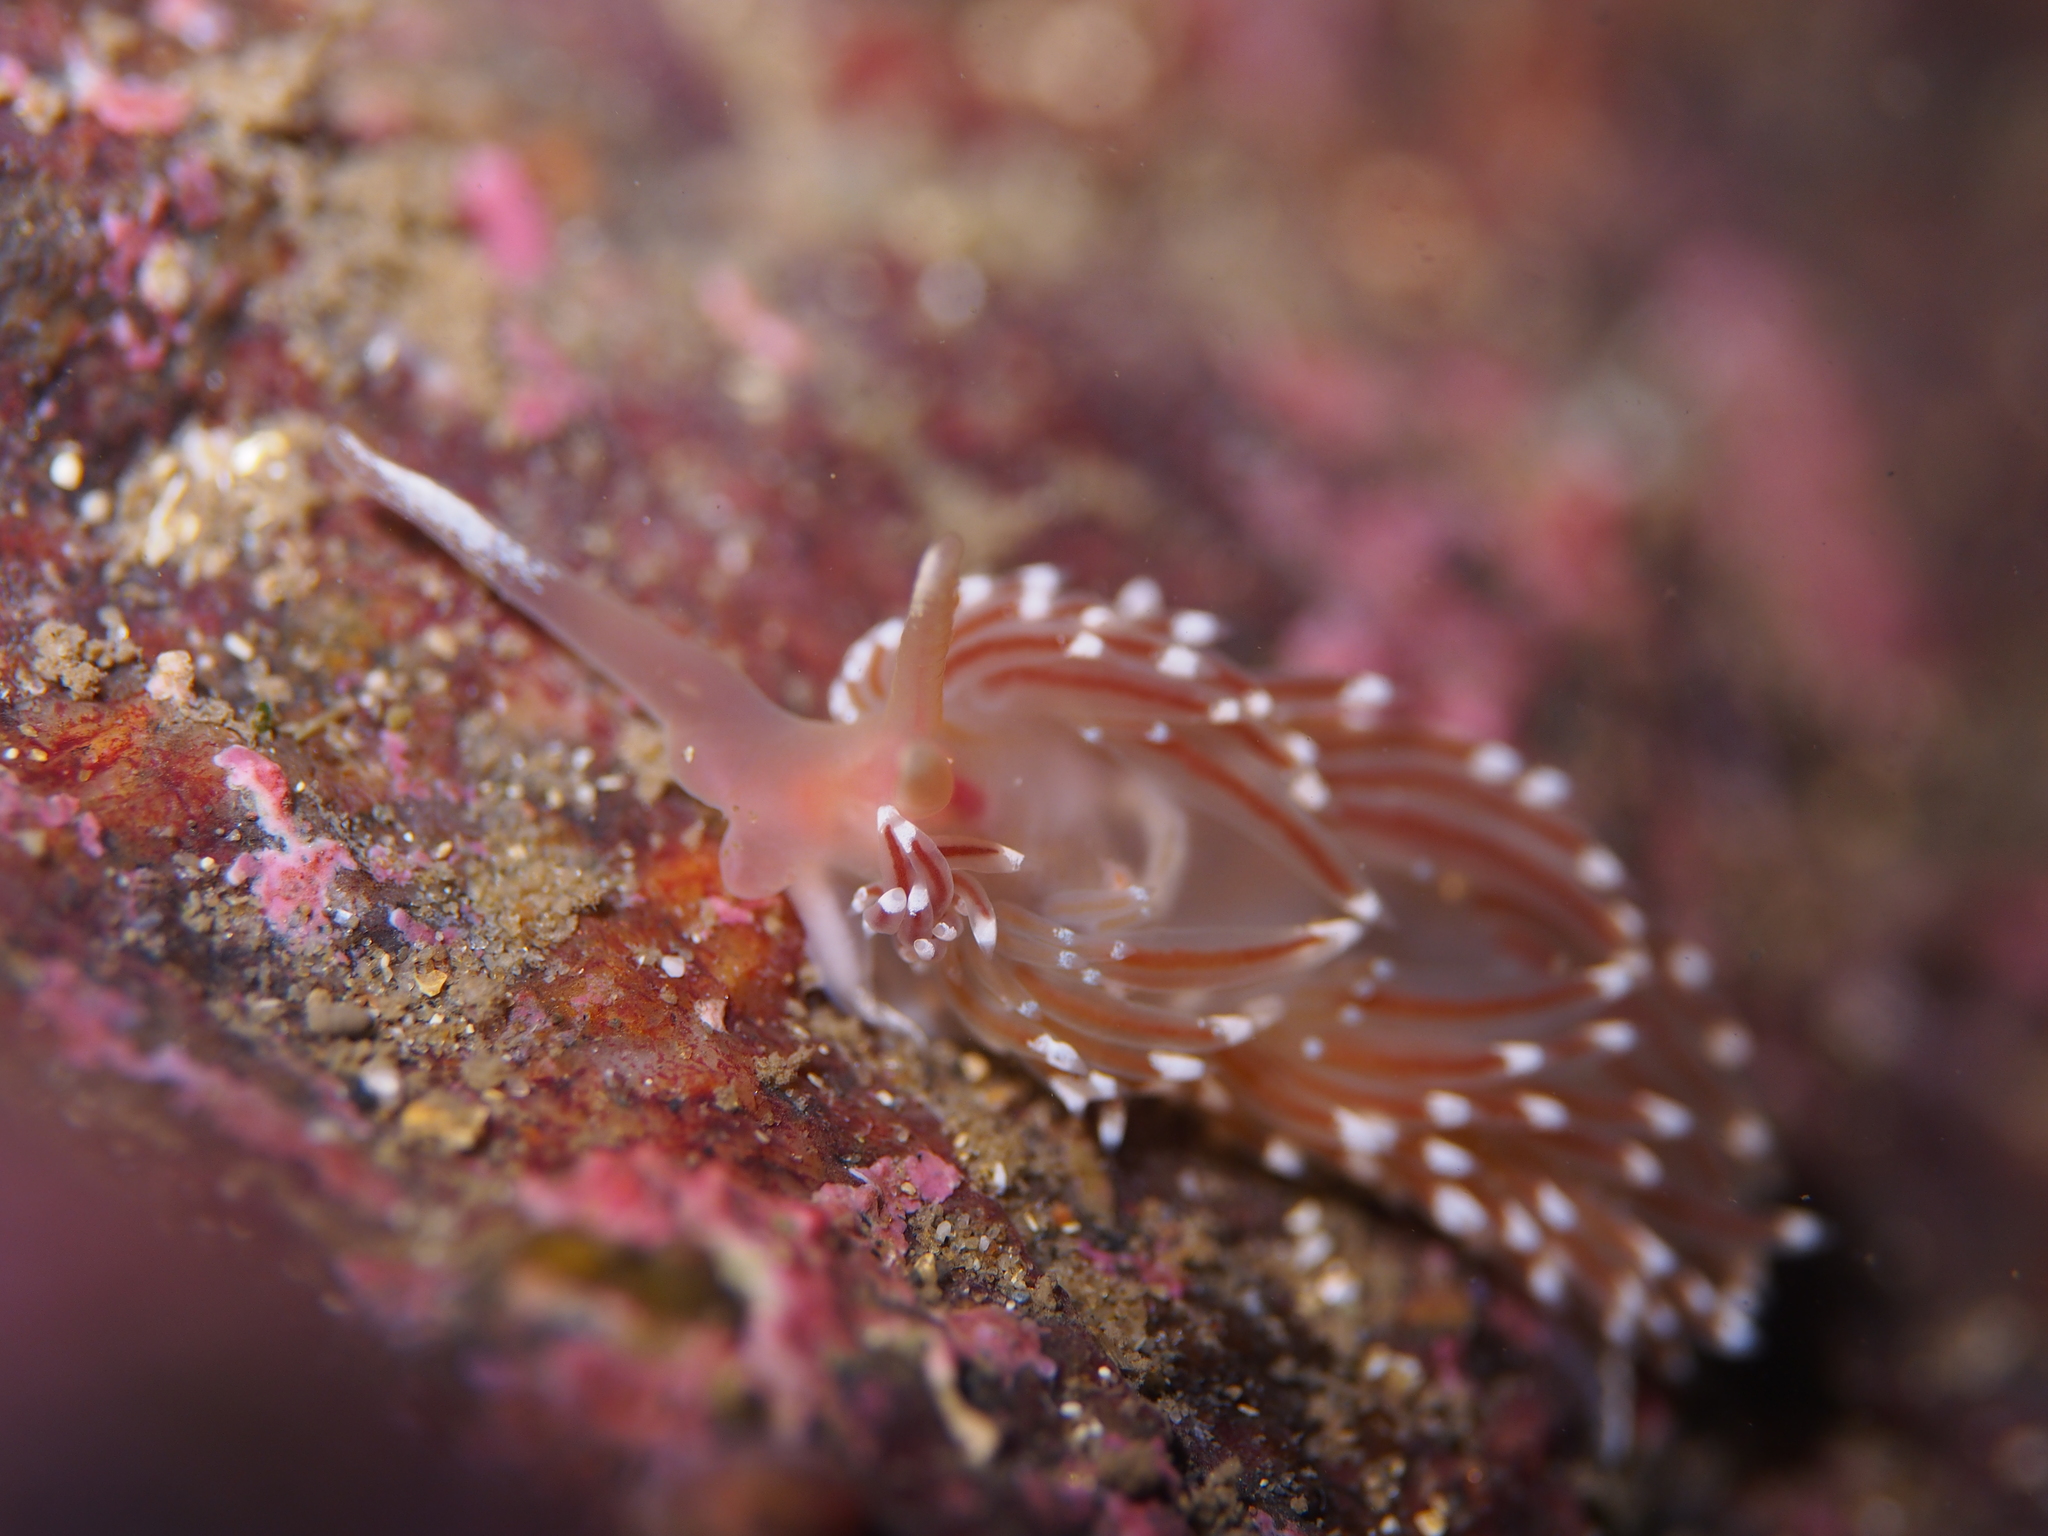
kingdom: Animalia
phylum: Mollusca
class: Gastropoda
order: Nudibranchia
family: Facelinidae
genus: Facelina
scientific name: Facelina bostoniensis
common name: Boston facelina
